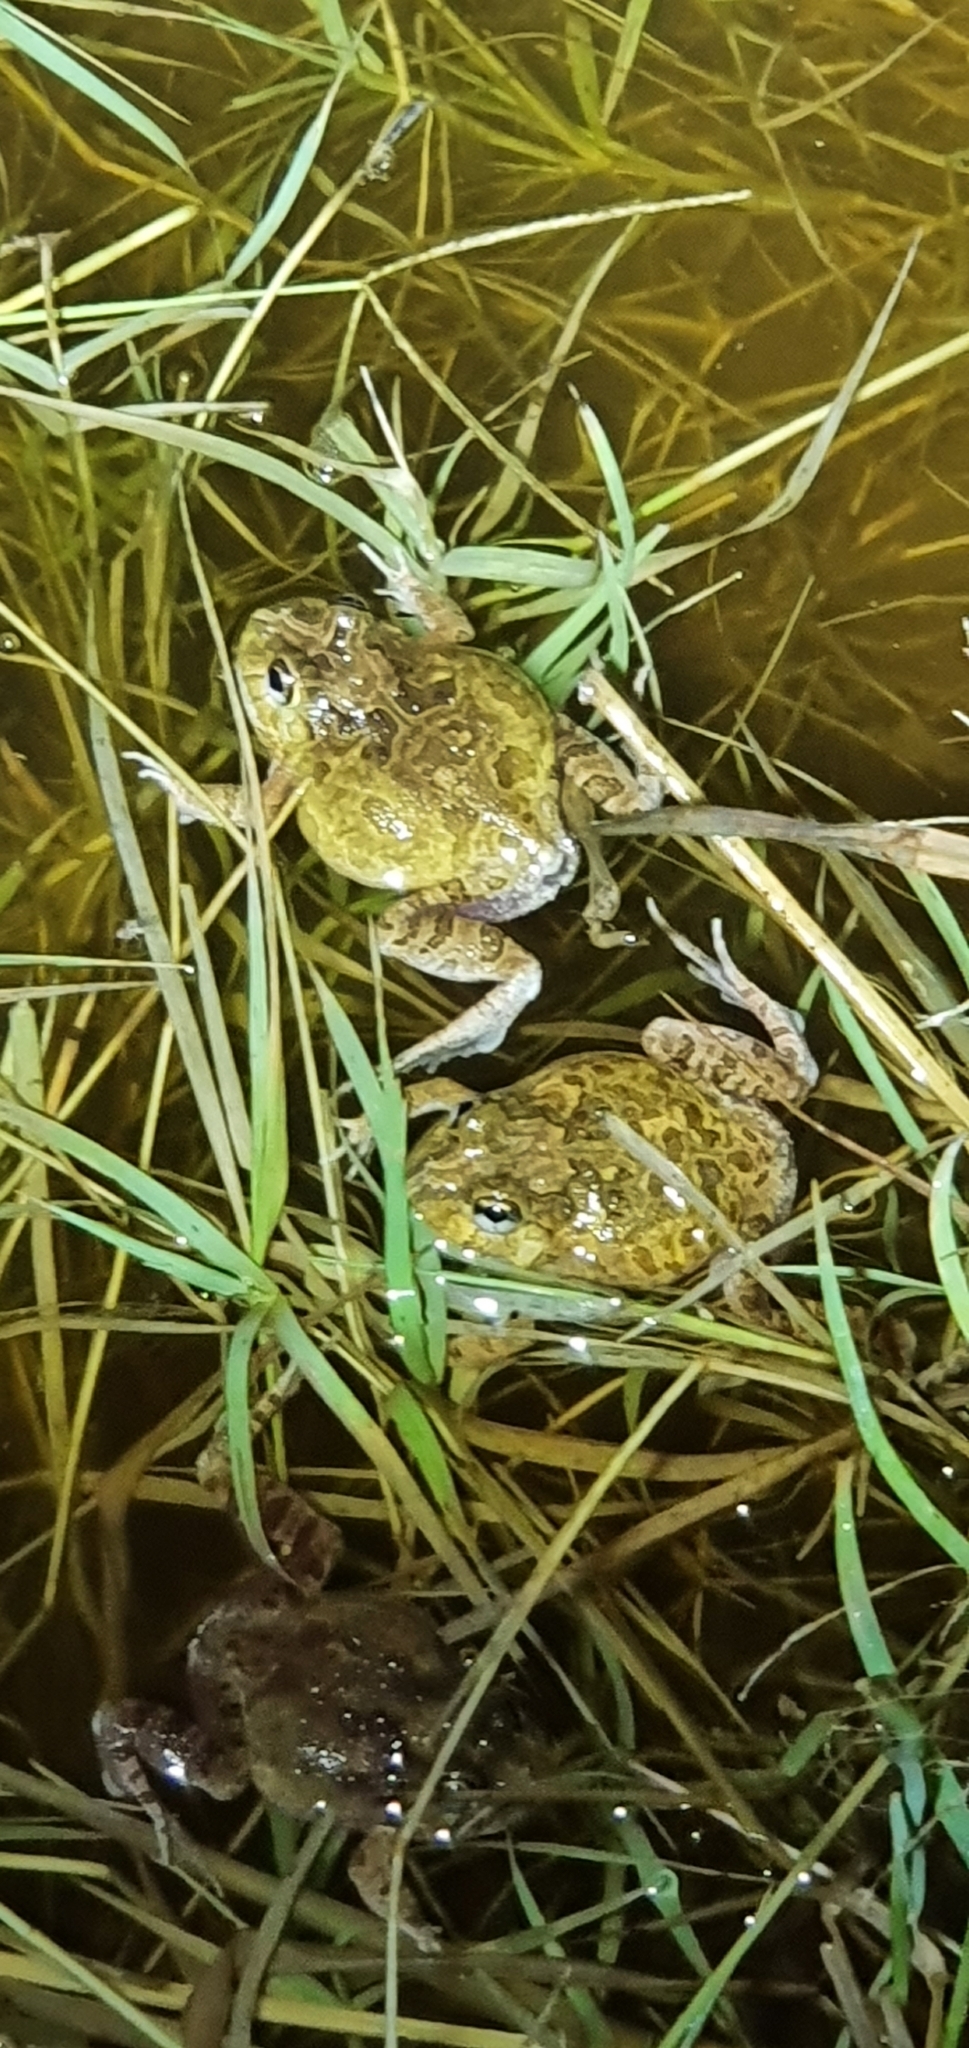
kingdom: Animalia
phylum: Chordata
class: Amphibia
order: Anura
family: Limnodynastidae
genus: Platyplectrum
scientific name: Platyplectrum ornatum
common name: Ornate burrowing frog
